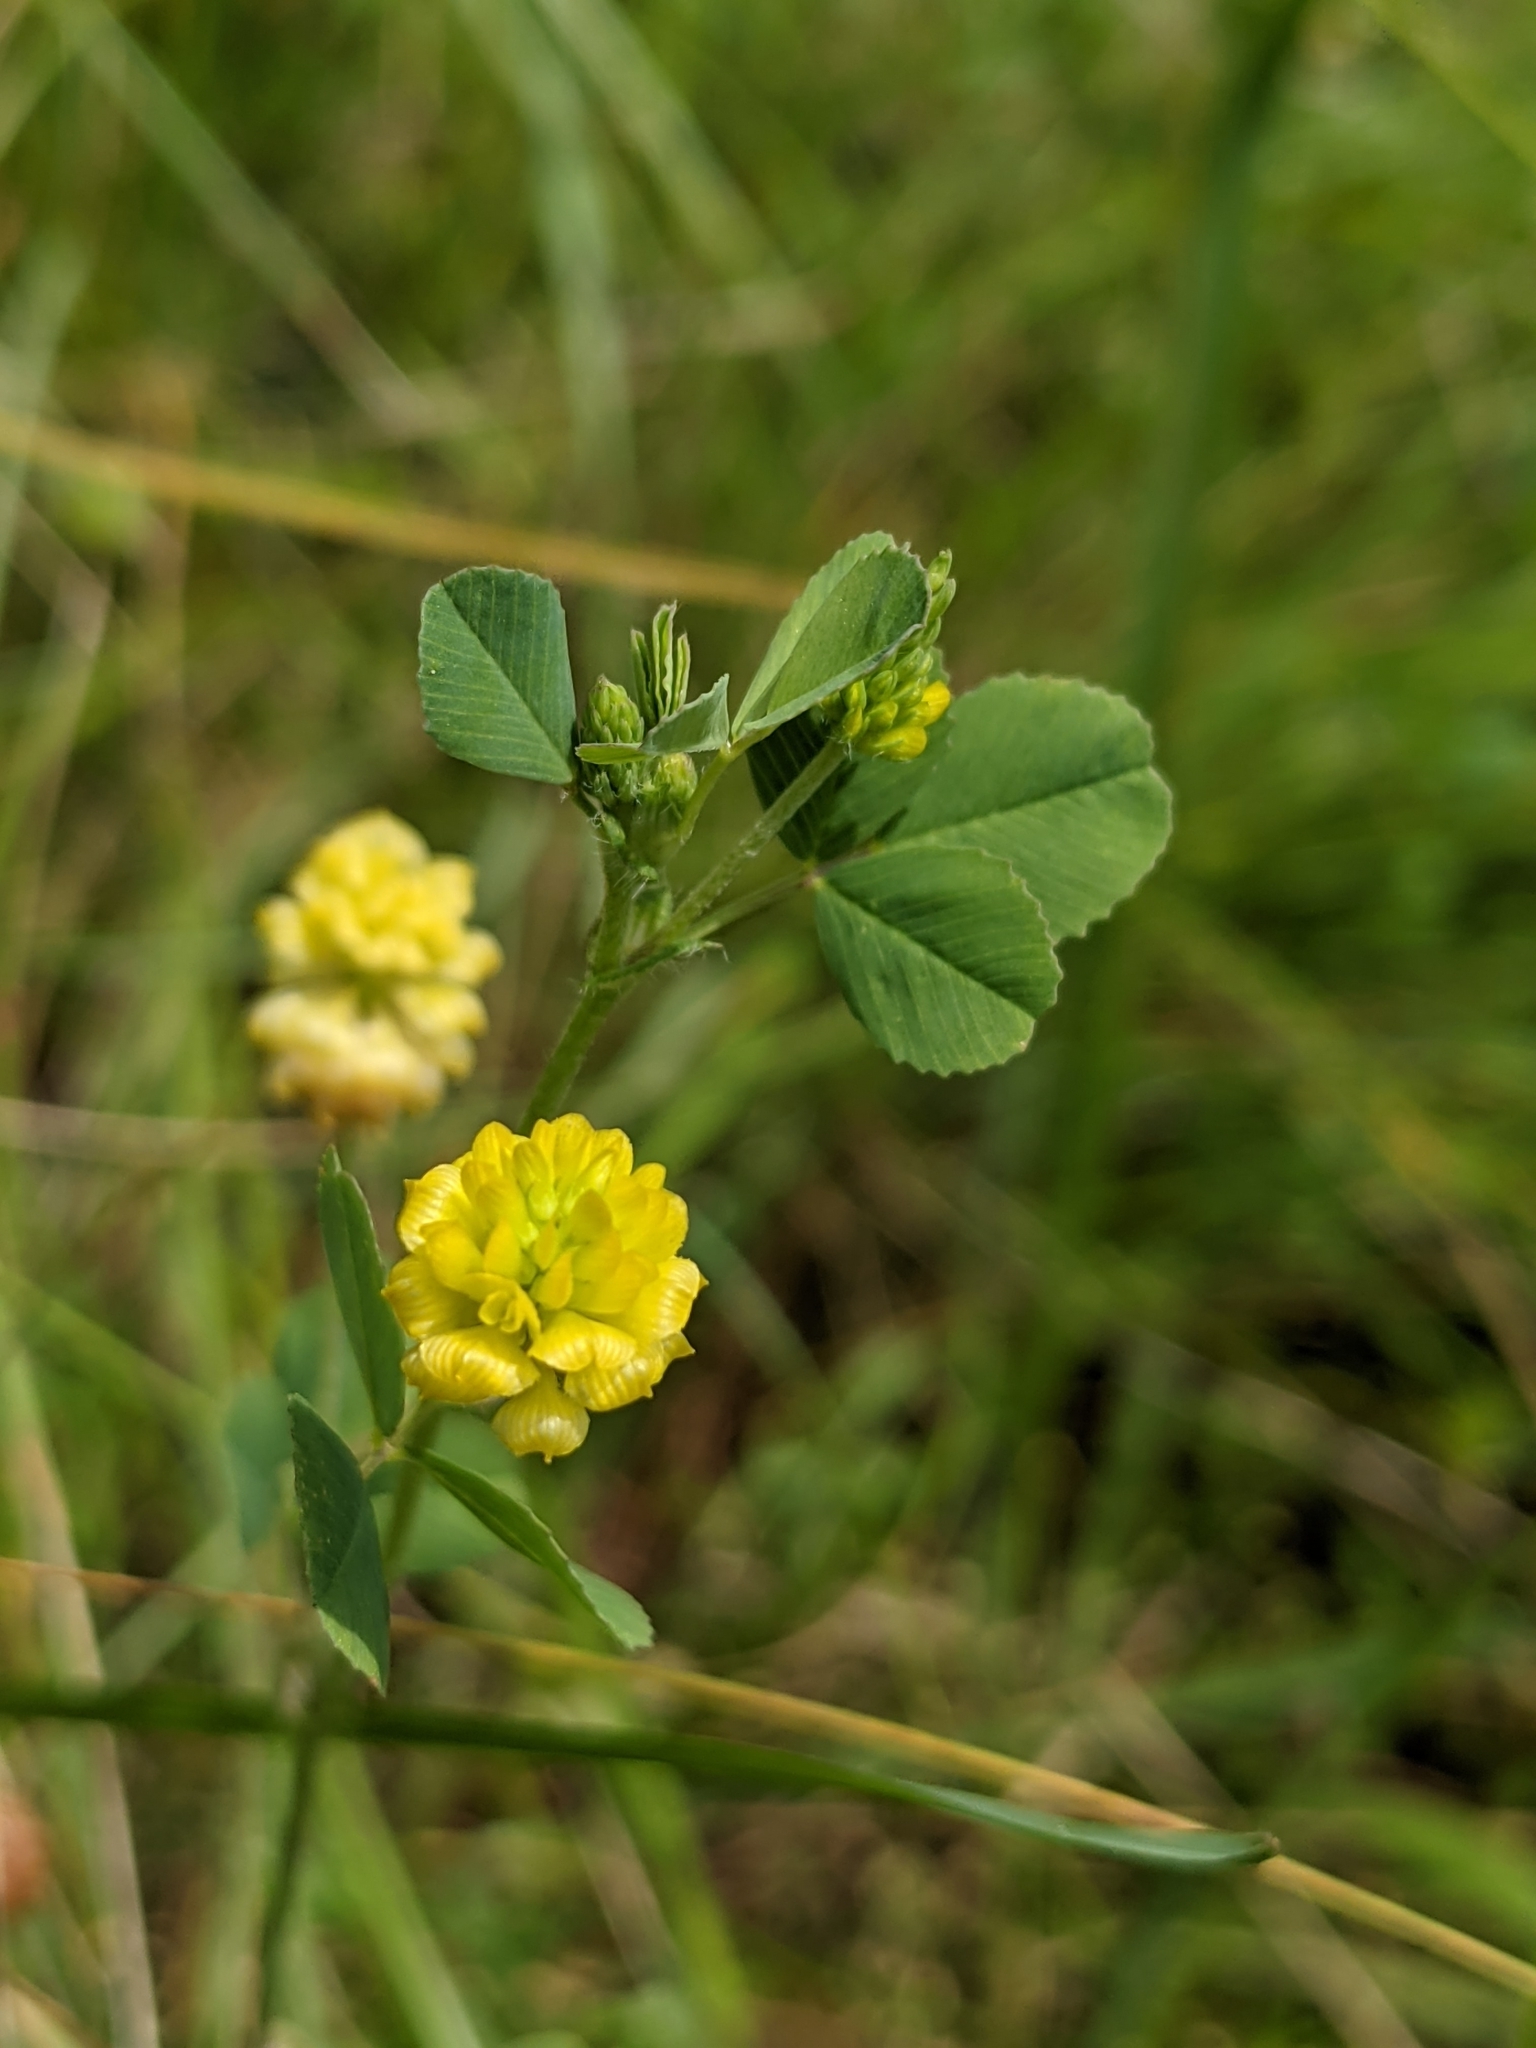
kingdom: Plantae
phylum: Tracheophyta
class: Magnoliopsida
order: Fabales
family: Fabaceae
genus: Trifolium
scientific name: Trifolium campestre
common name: Field clover
